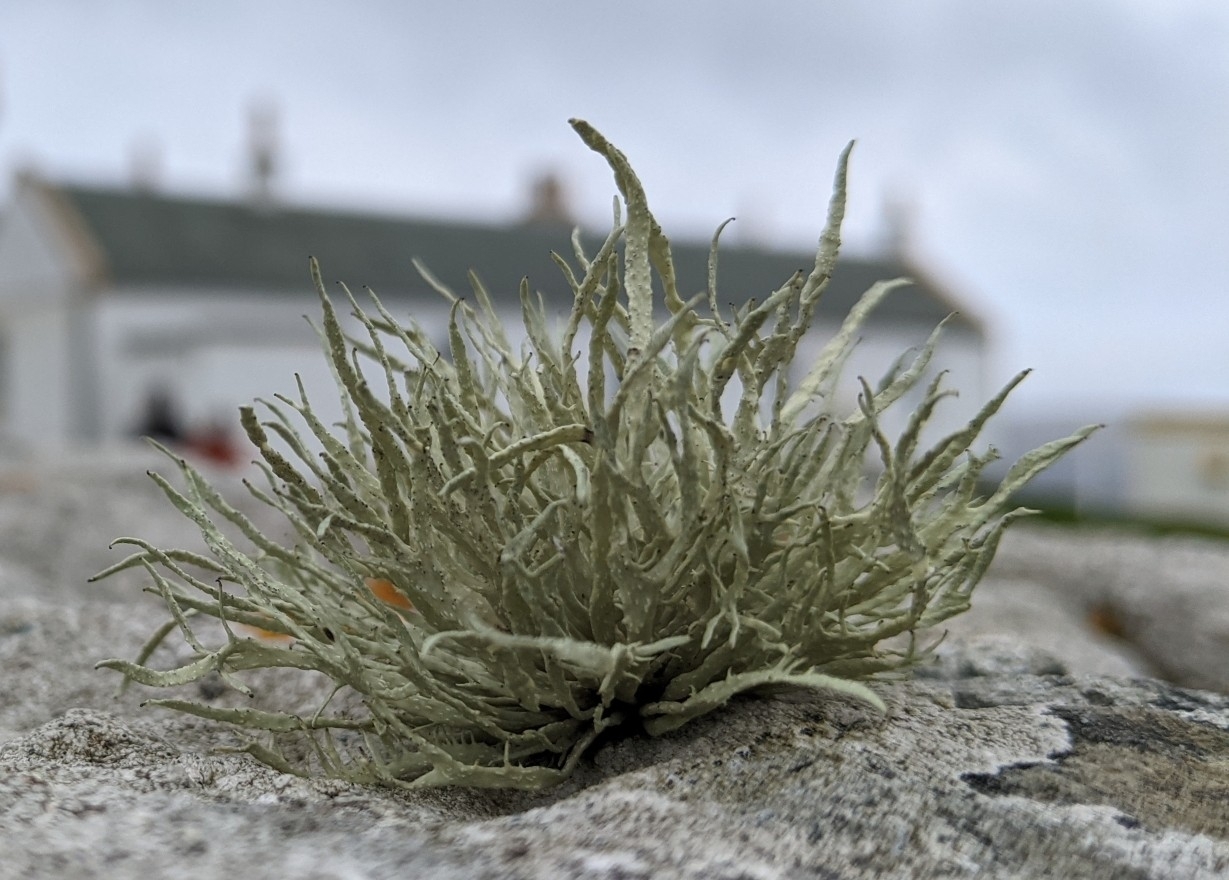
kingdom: Fungi
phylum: Ascomycota
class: Lecanoromycetes
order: Lecanorales
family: Ramalinaceae
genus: Ramalina
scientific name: Ramalina cuspidata
